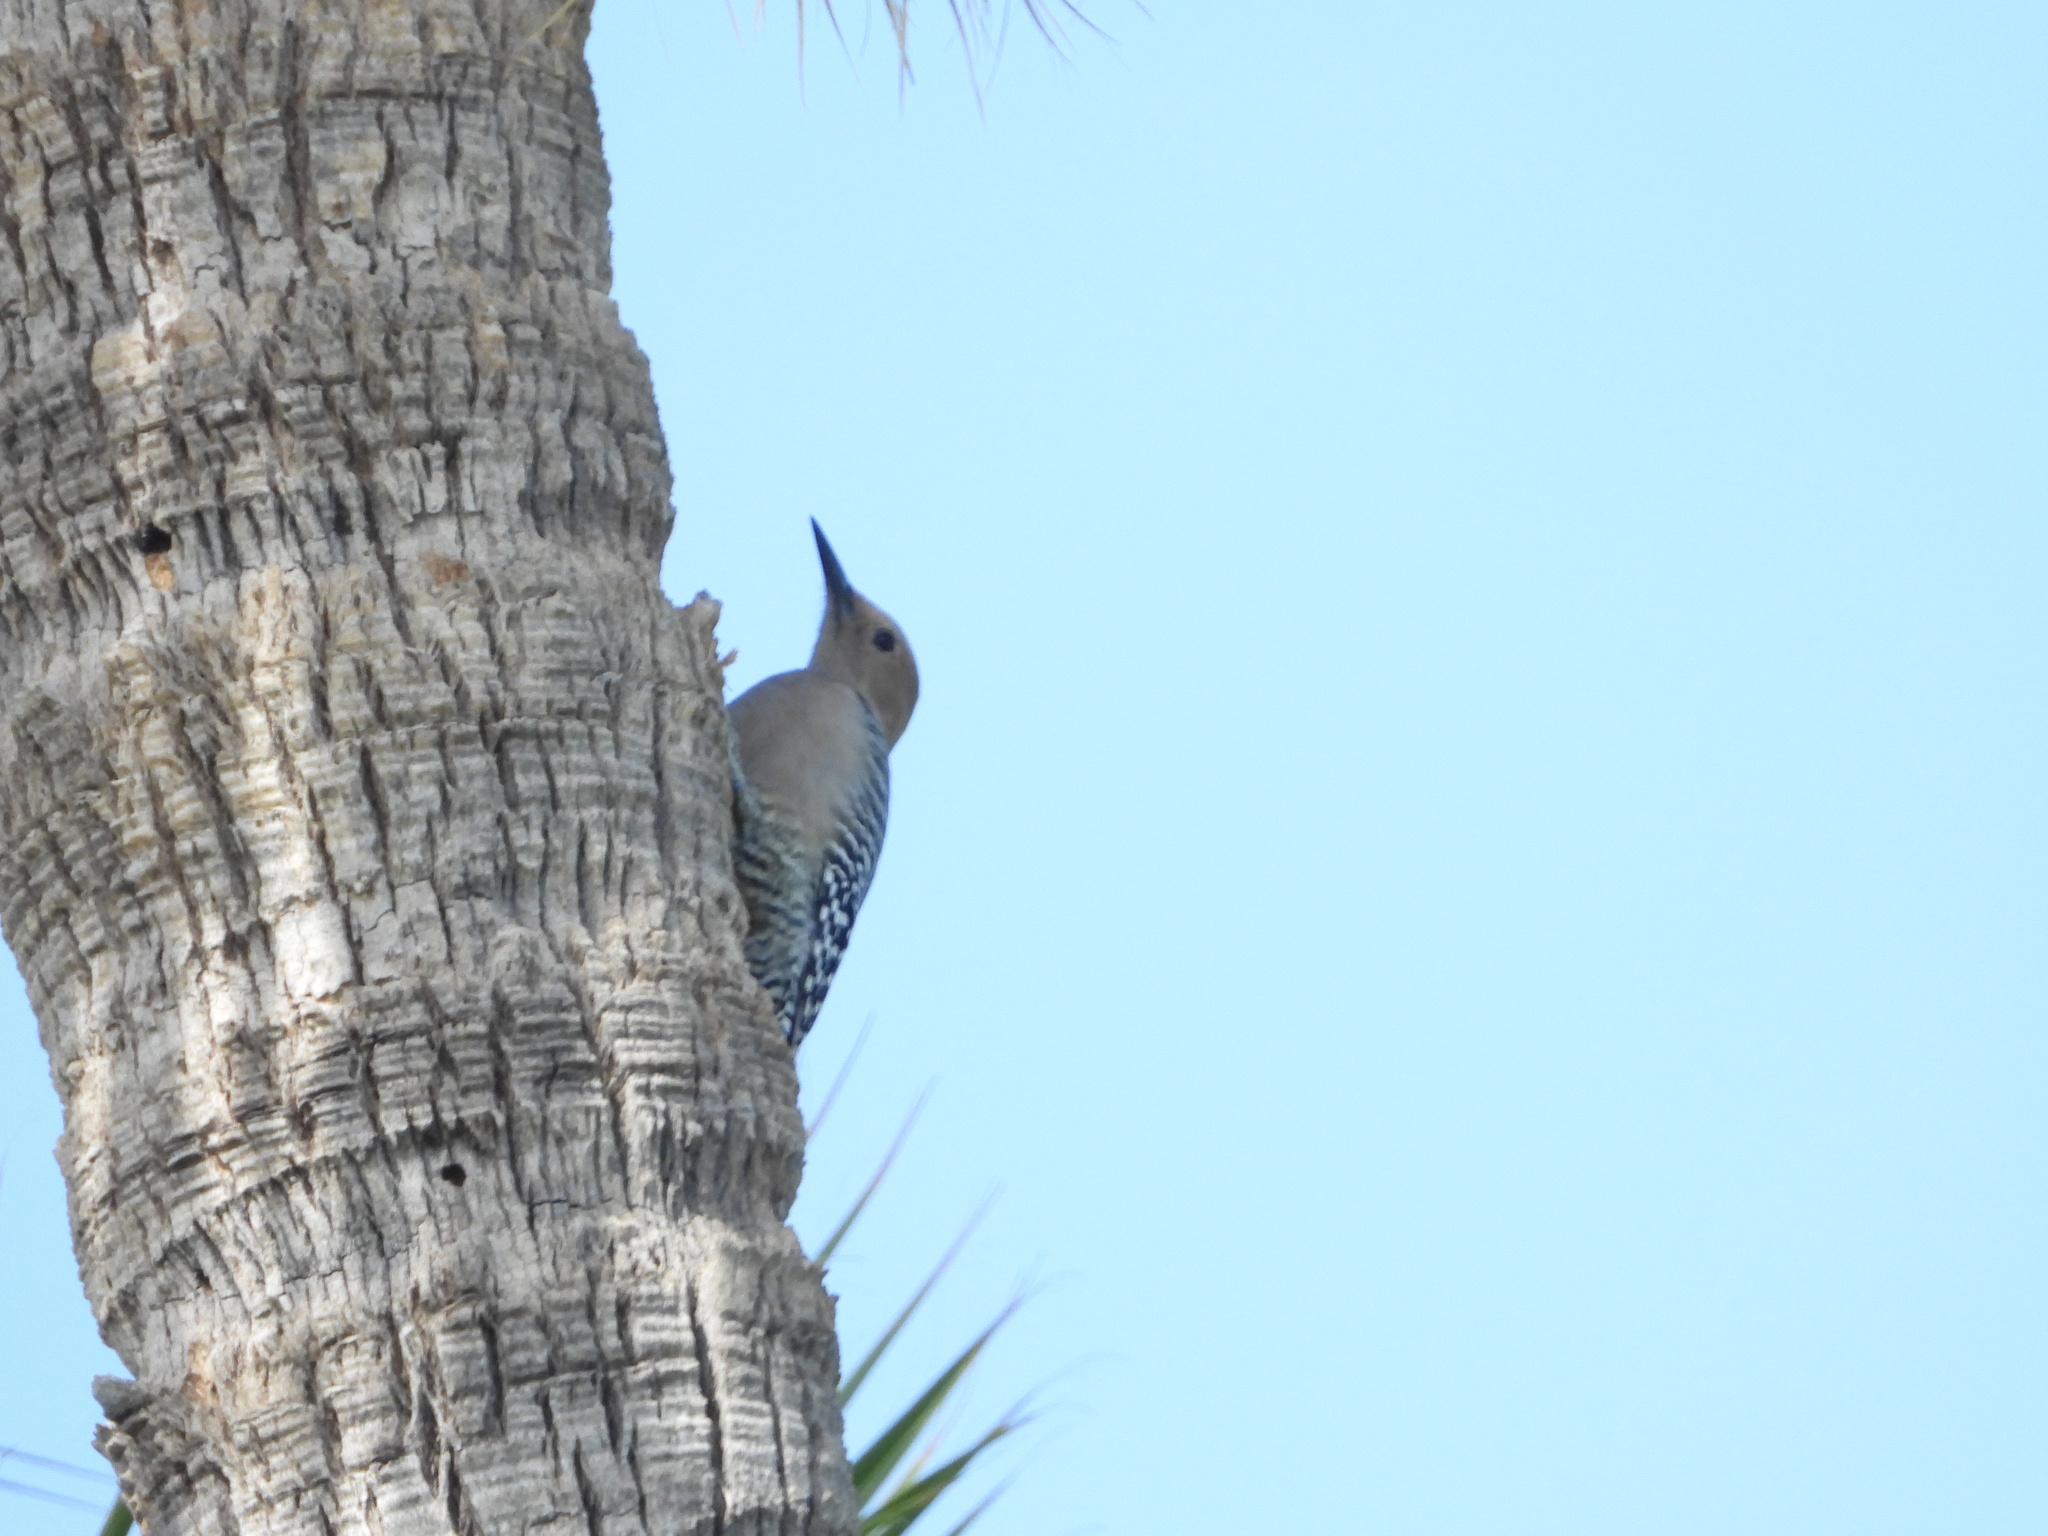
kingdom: Animalia
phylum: Chordata
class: Aves
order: Piciformes
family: Picidae
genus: Melanerpes
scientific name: Melanerpes uropygialis
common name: Gila woodpecker
